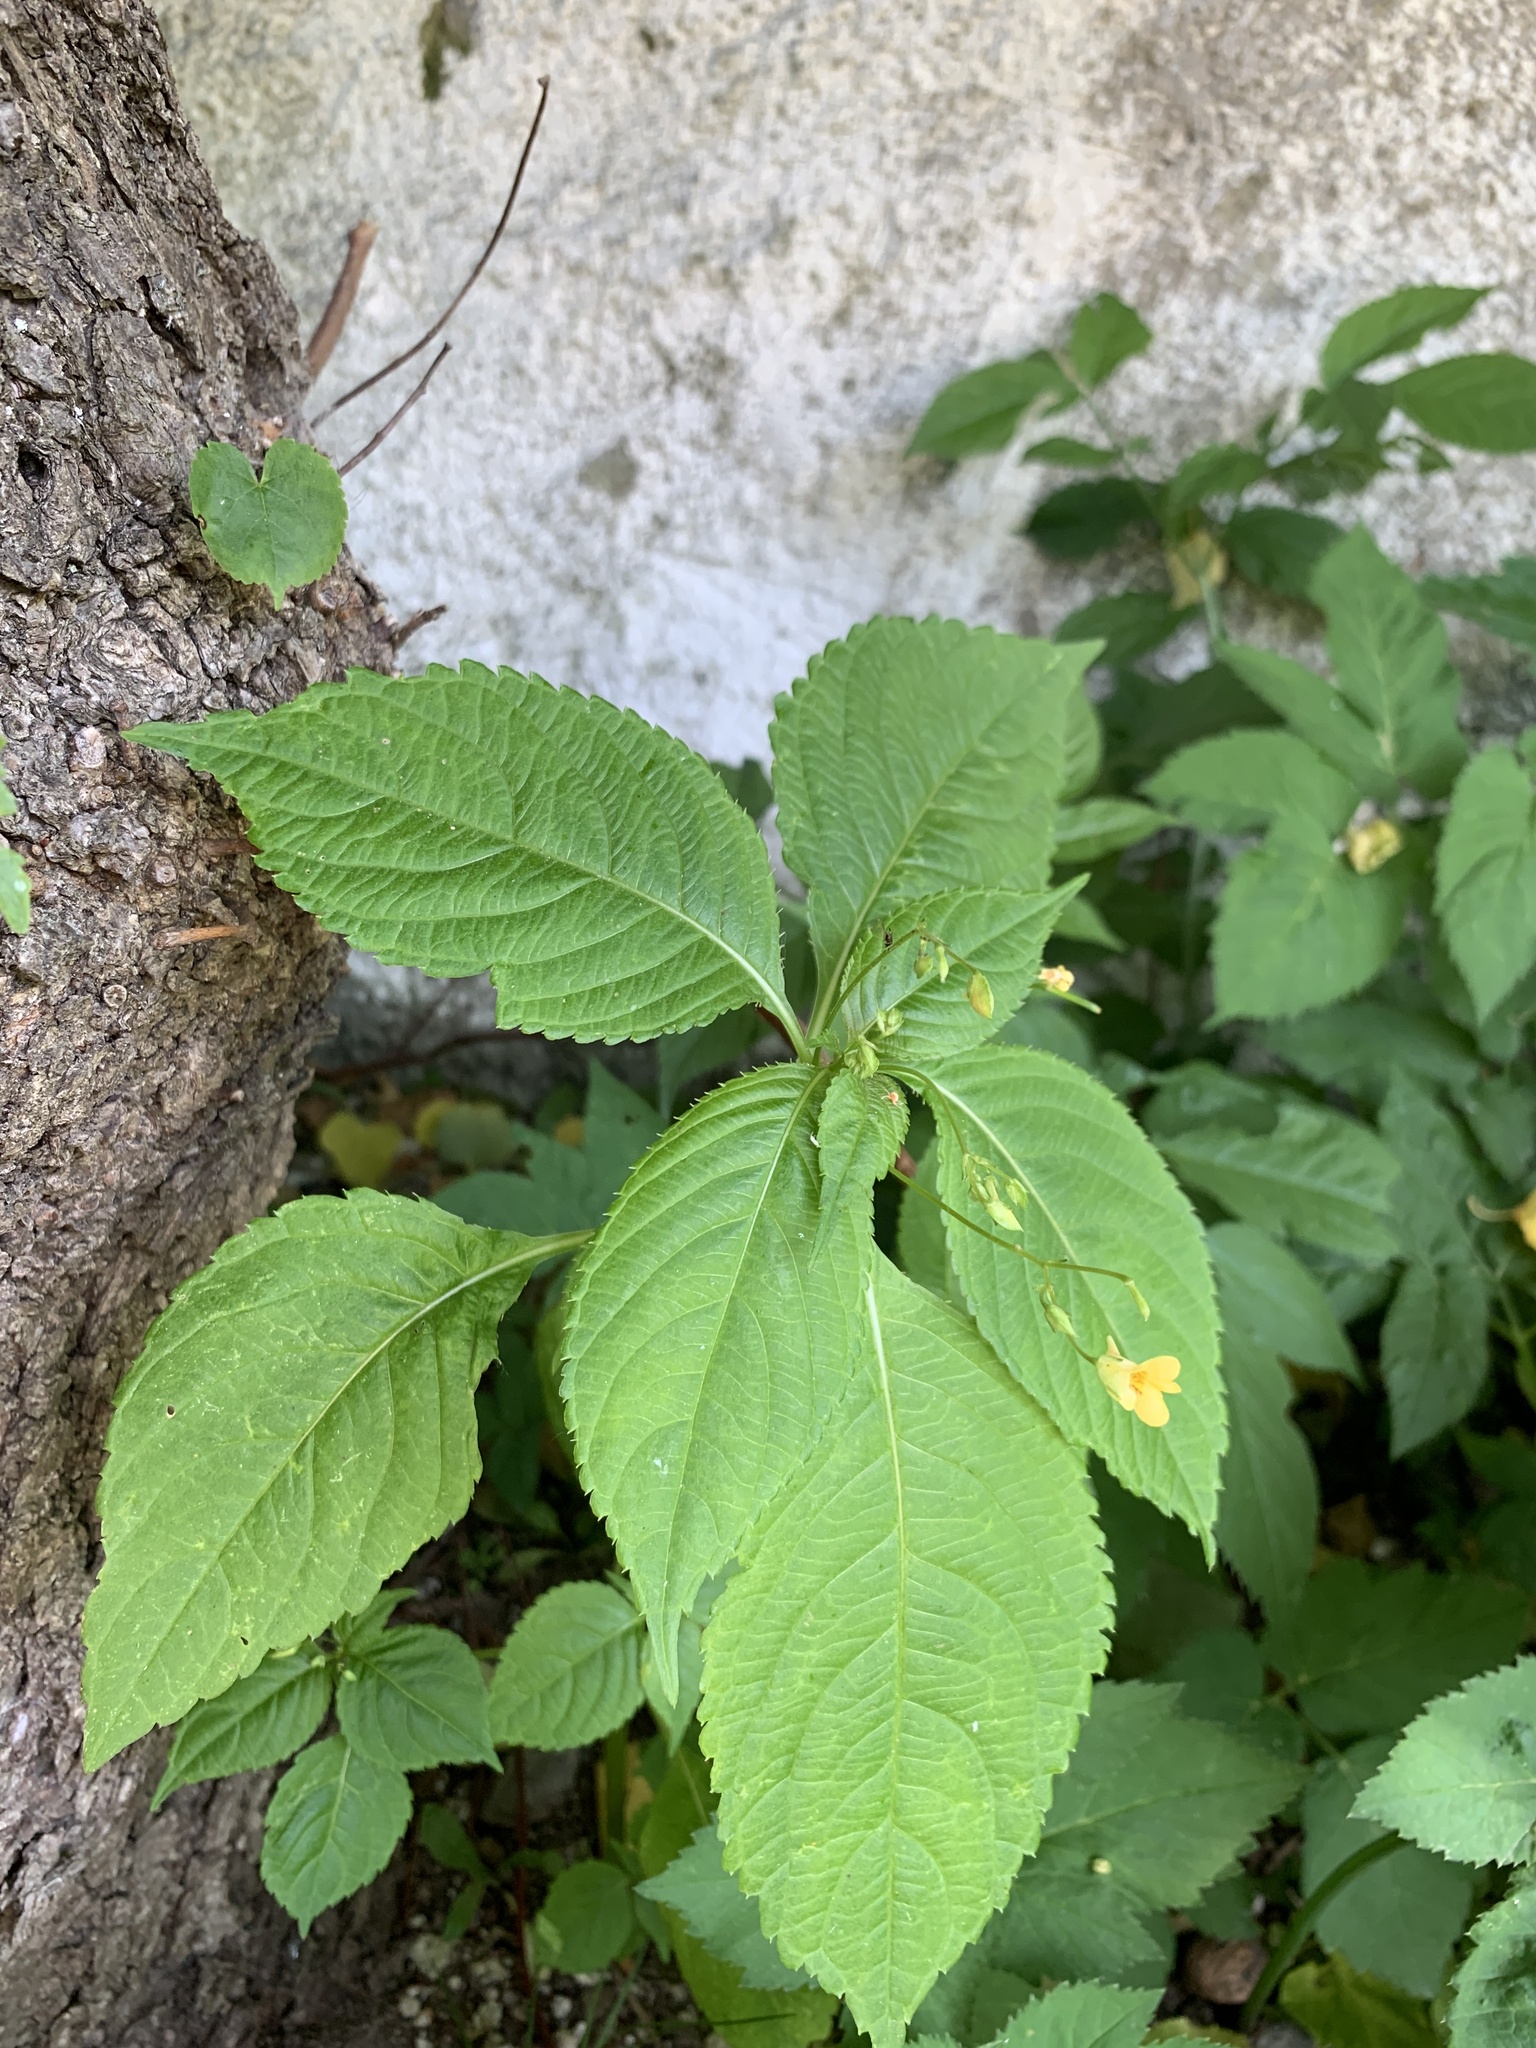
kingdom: Plantae
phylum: Tracheophyta
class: Magnoliopsida
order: Ericales
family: Balsaminaceae
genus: Impatiens
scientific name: Impatiens parviflora
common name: Small balsam
